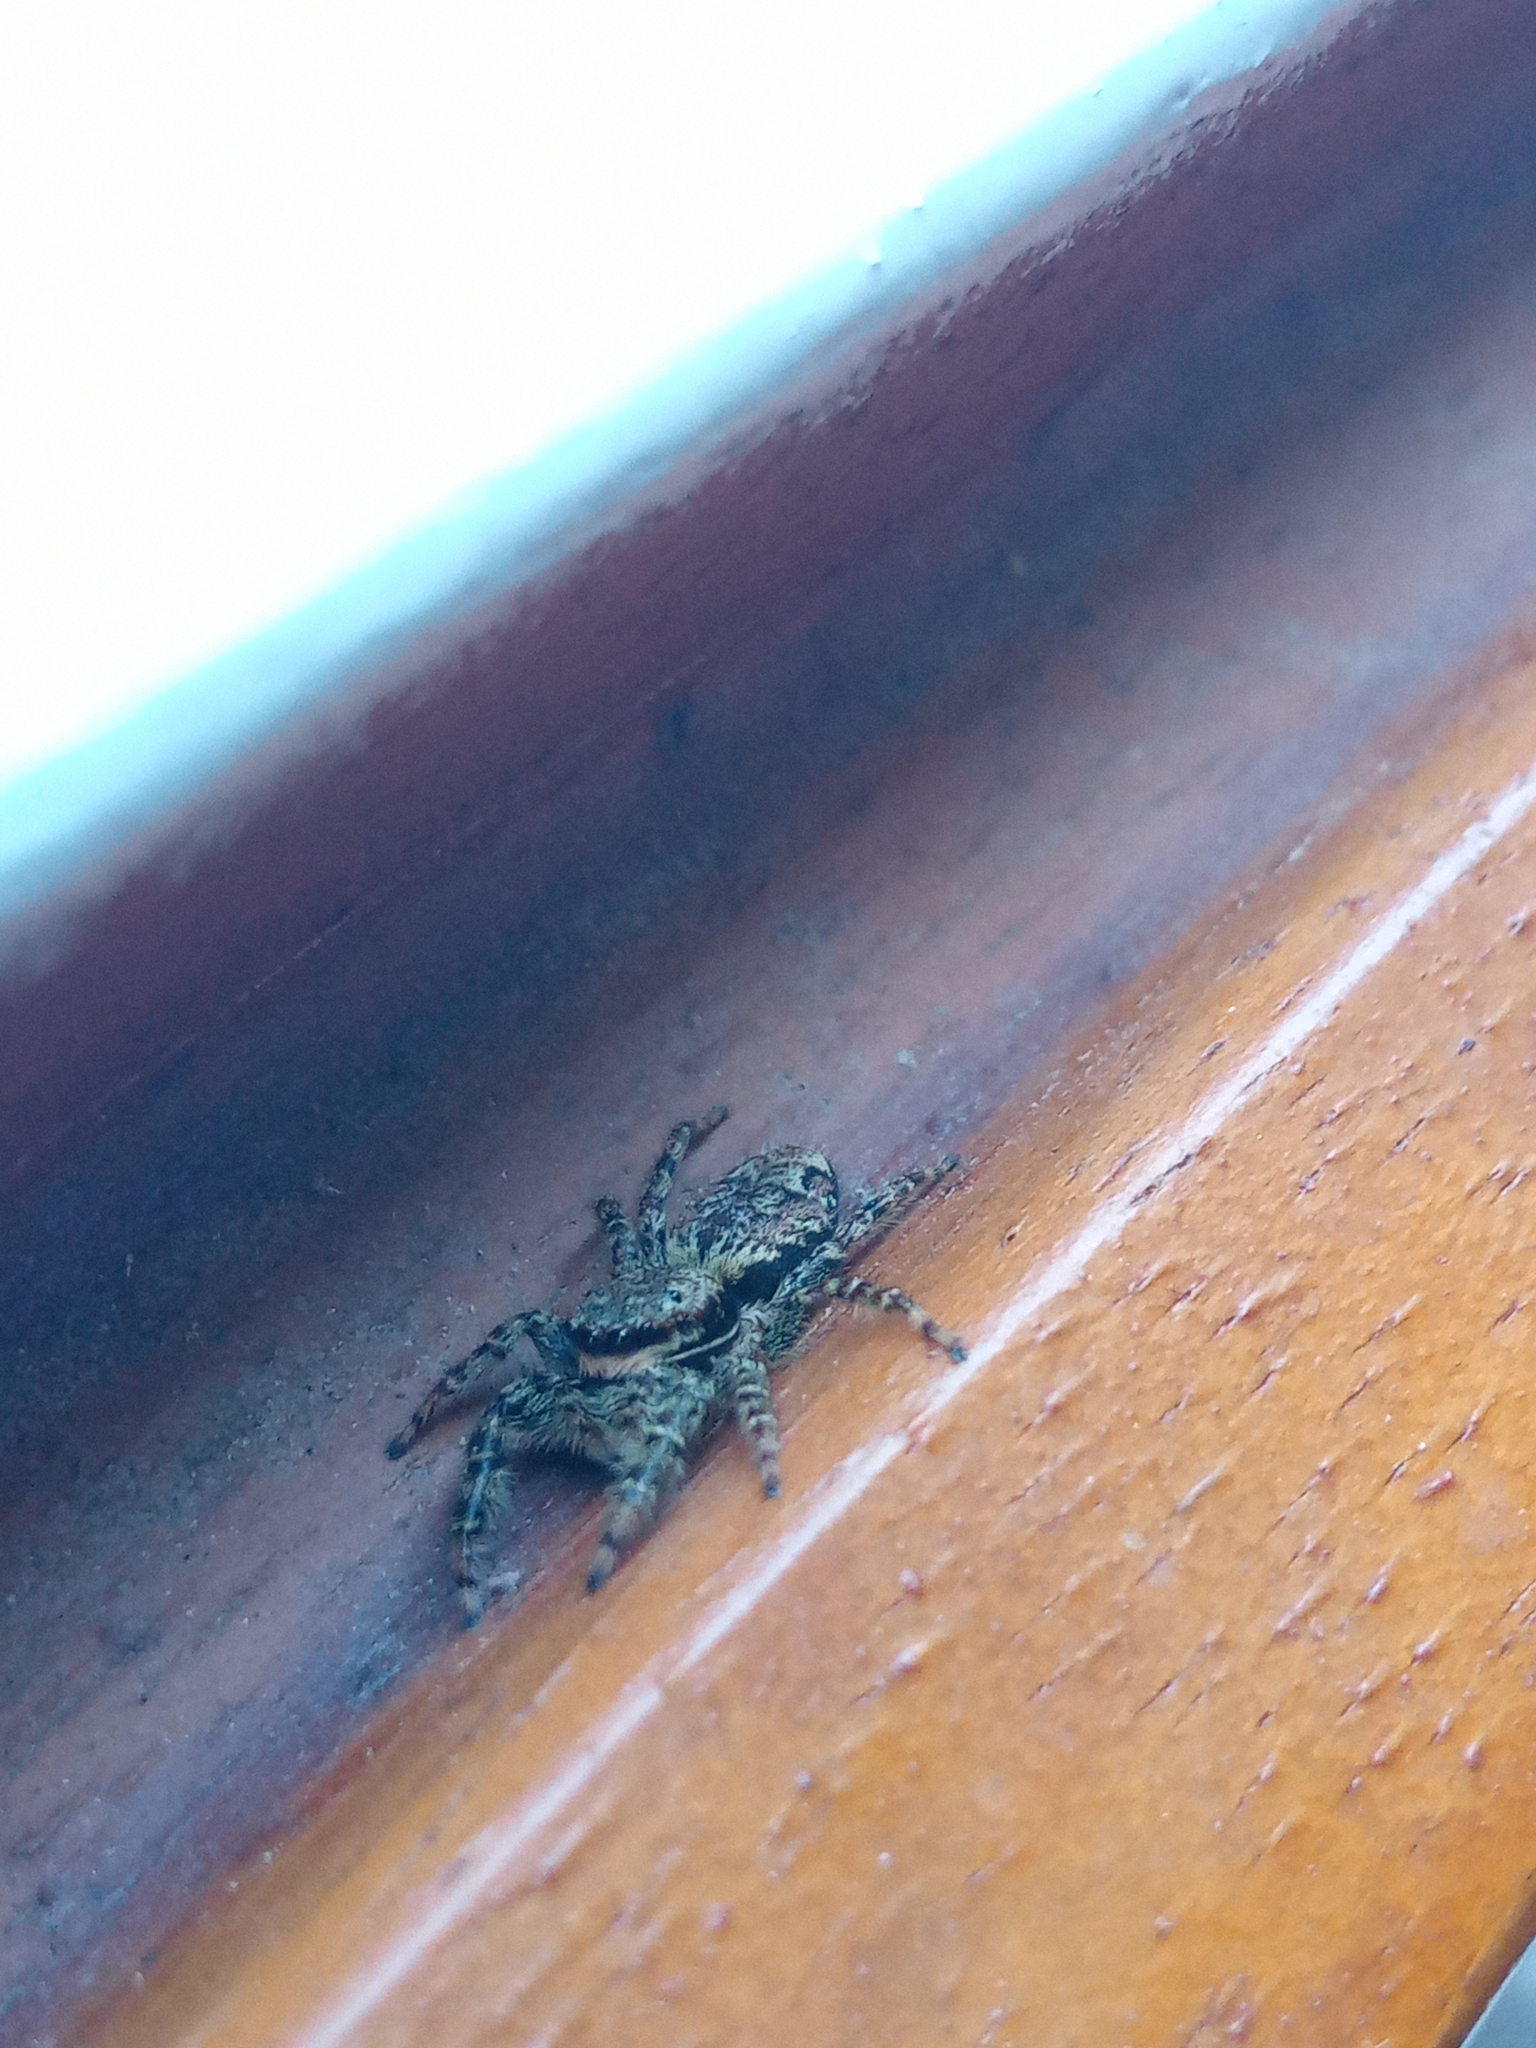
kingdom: Animalia
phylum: Arthropoda
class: Arachnida
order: Araneae
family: Salticidae
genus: Marpissa
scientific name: Marpissa muscosa
